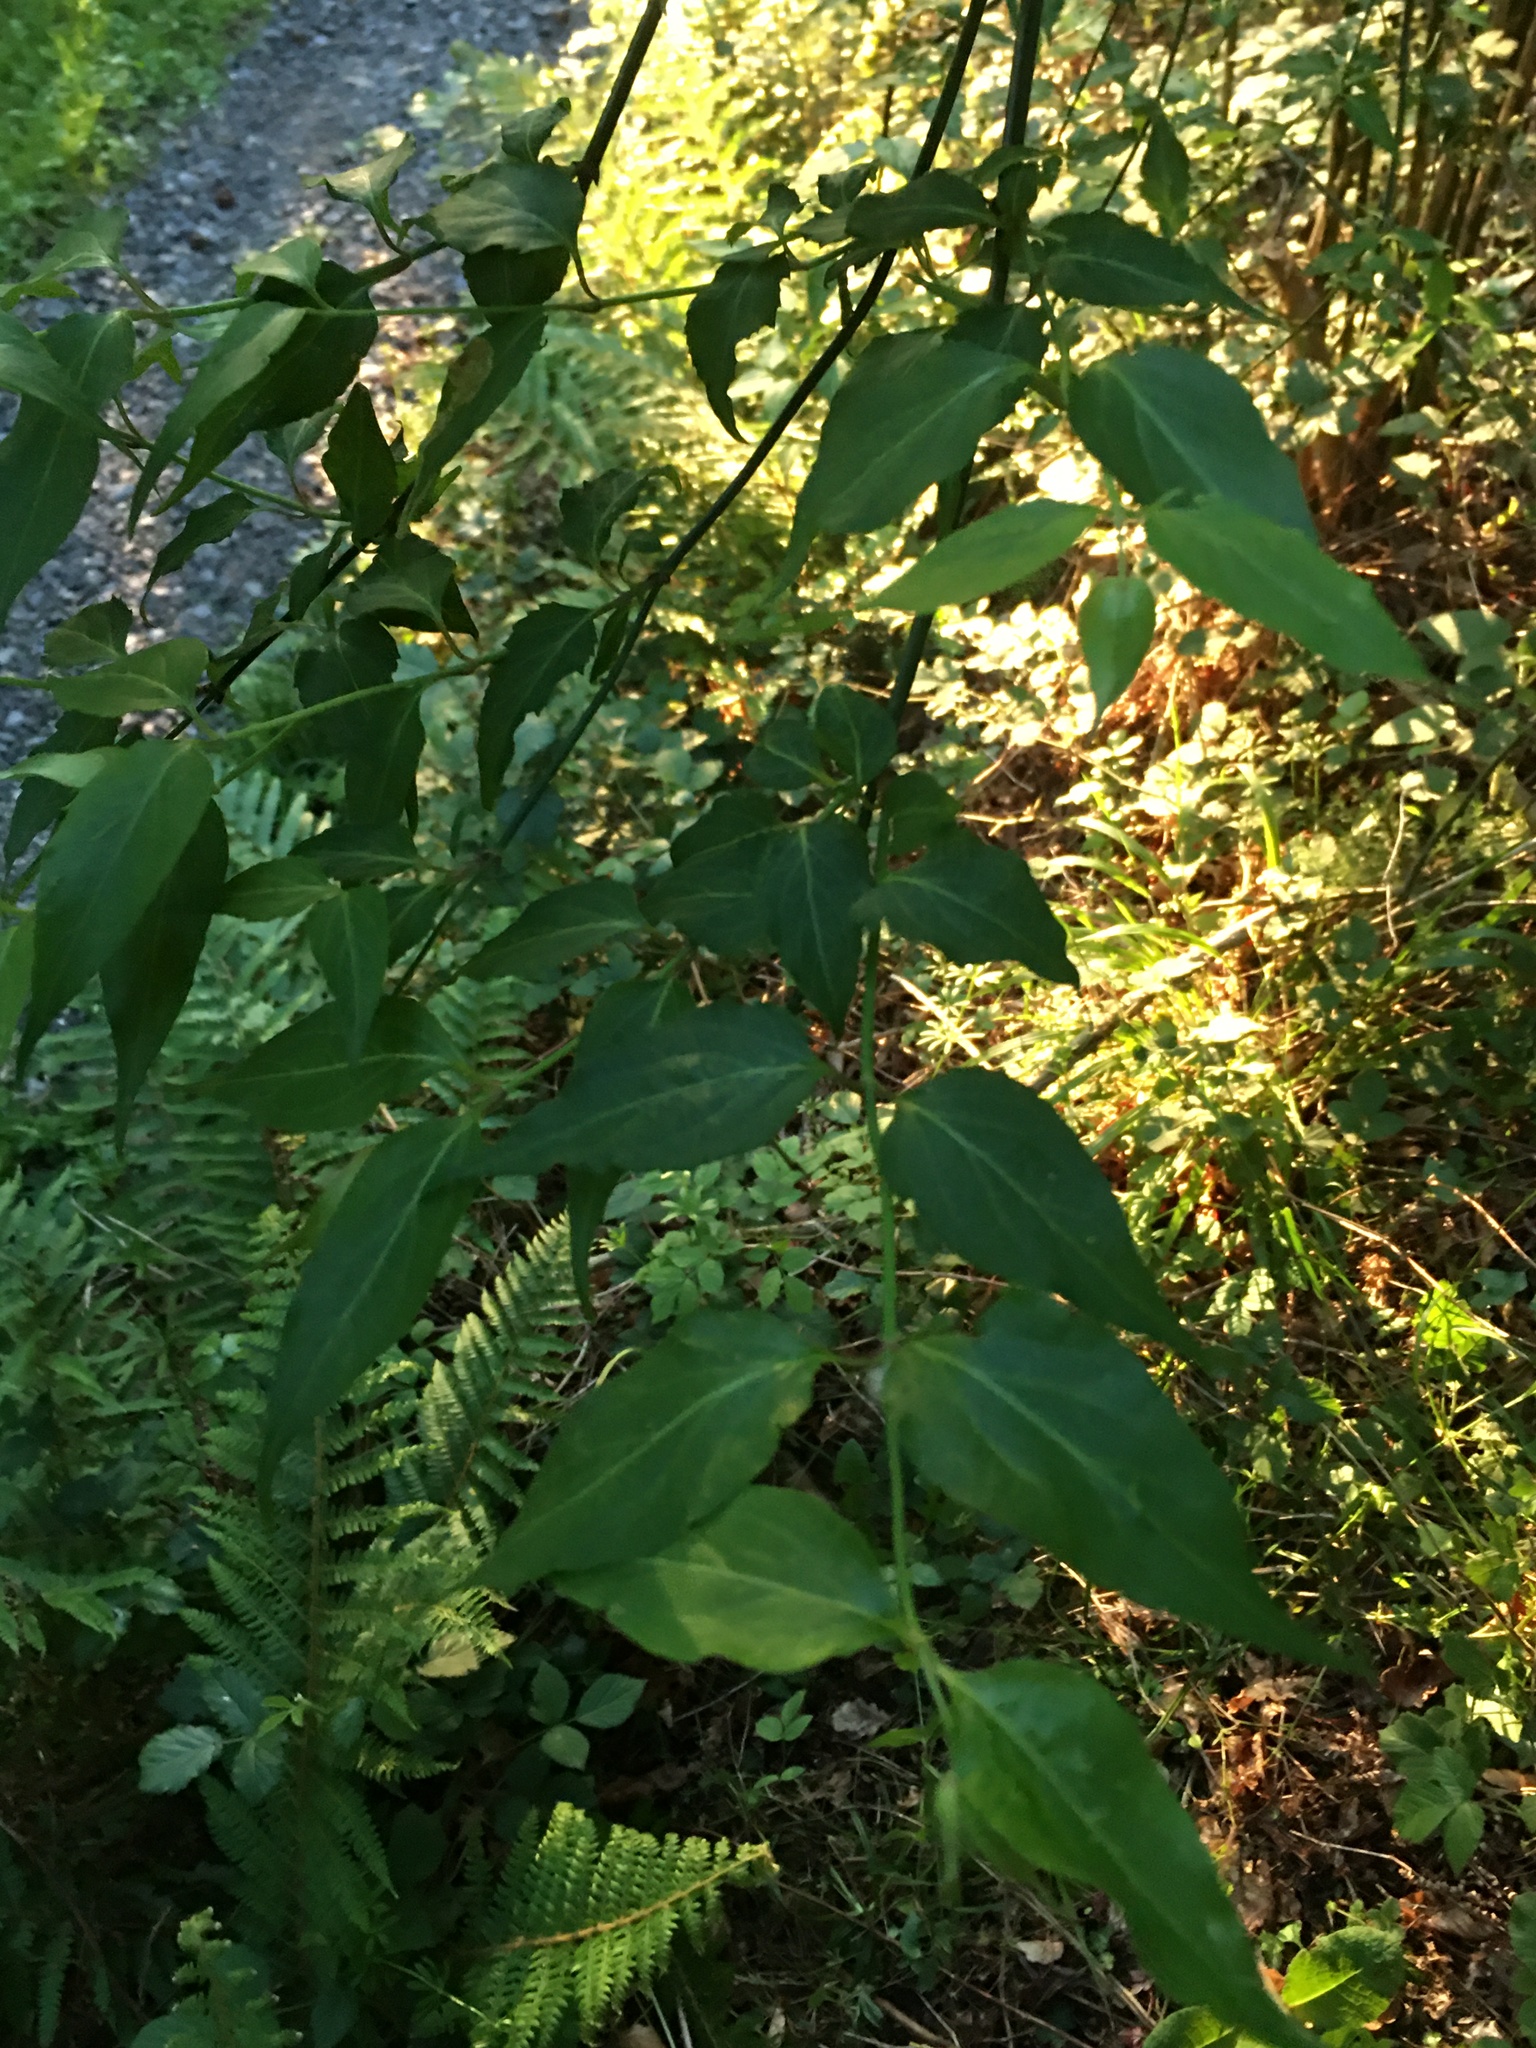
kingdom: Plantae
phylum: Tracheophyta
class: Magnoliopsida
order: Dipsacales
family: Caprifoliaceae
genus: Leycesteria
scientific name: Leycesteria formosa
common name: Himalayan honeysuckle
